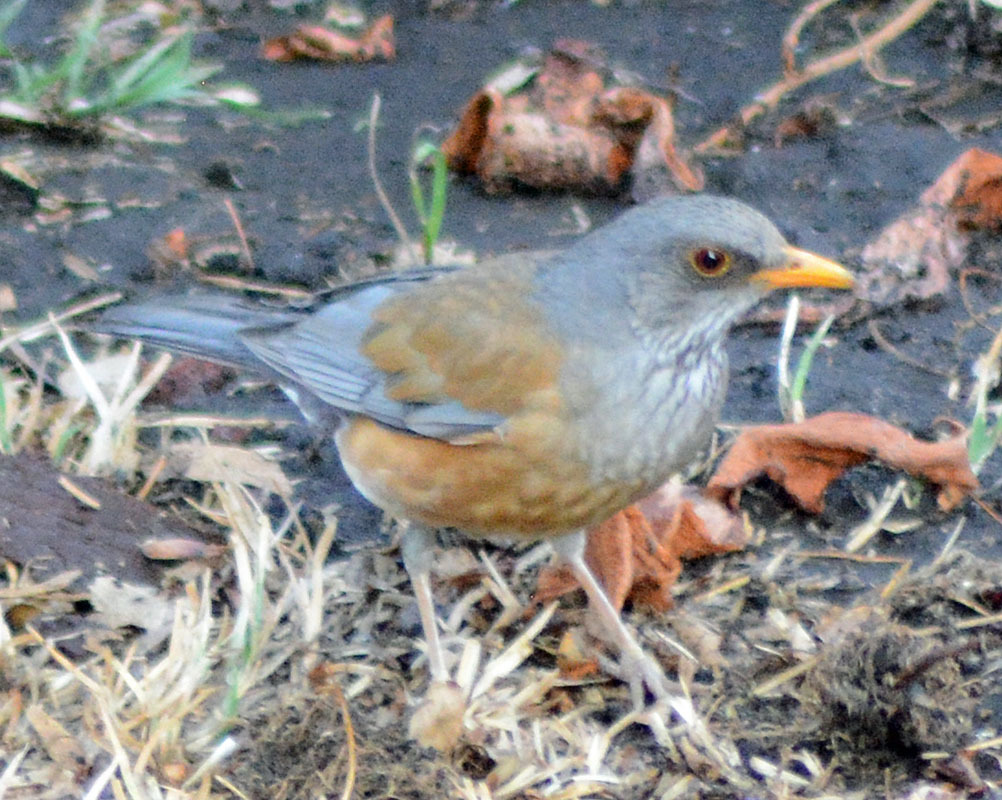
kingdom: Animalia
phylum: Chordata
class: Aves
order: Passeriformes
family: Turdidae
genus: Turdus
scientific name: Turdus rufopalliatus
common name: Rufous-backed robin
